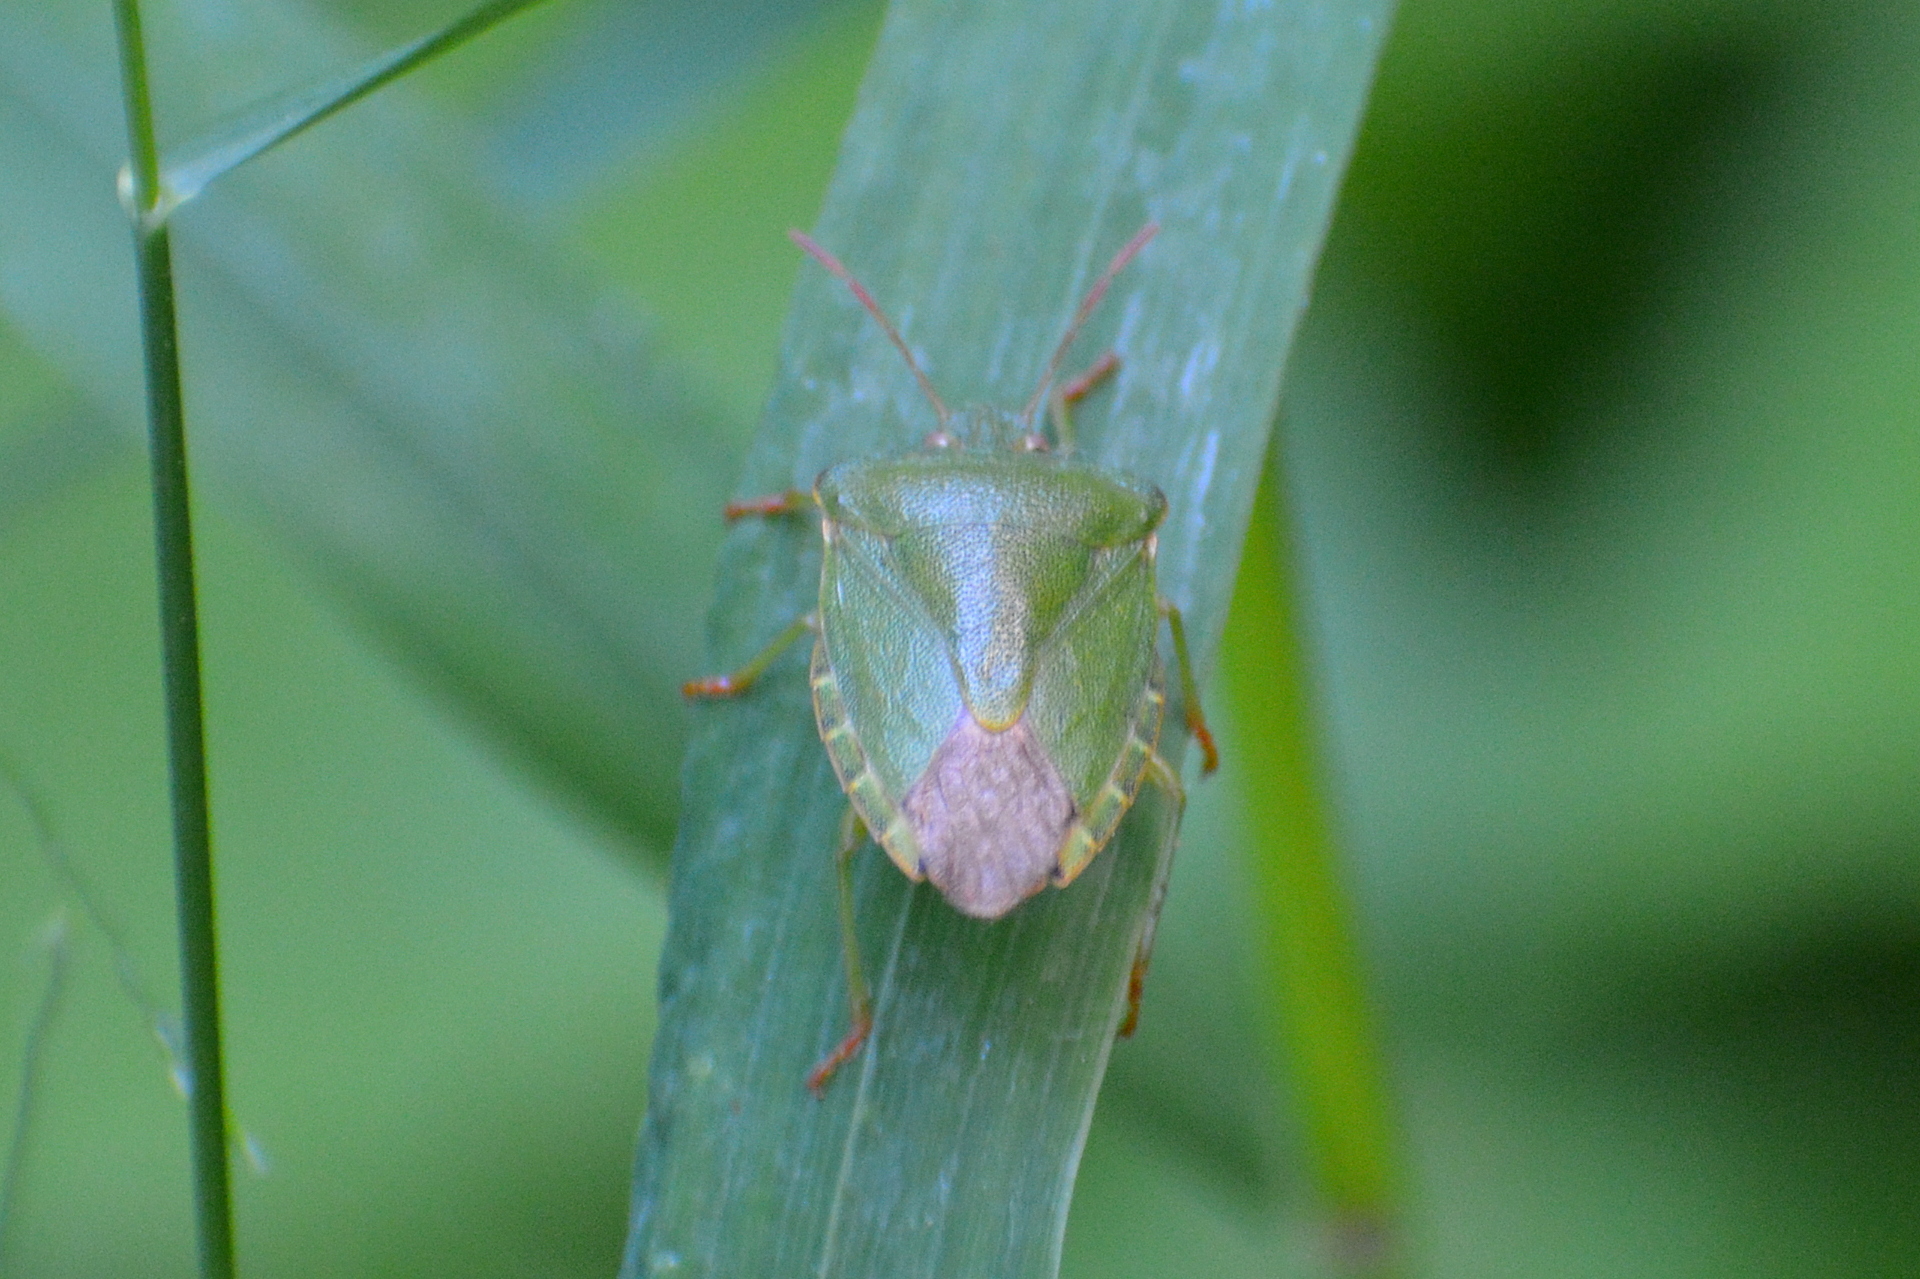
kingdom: Animalia
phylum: Arthropoda
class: Insecta
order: Hemiptera
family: Pentatomidae
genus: Palomena
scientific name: Palomena prasina
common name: Green shieldbug
